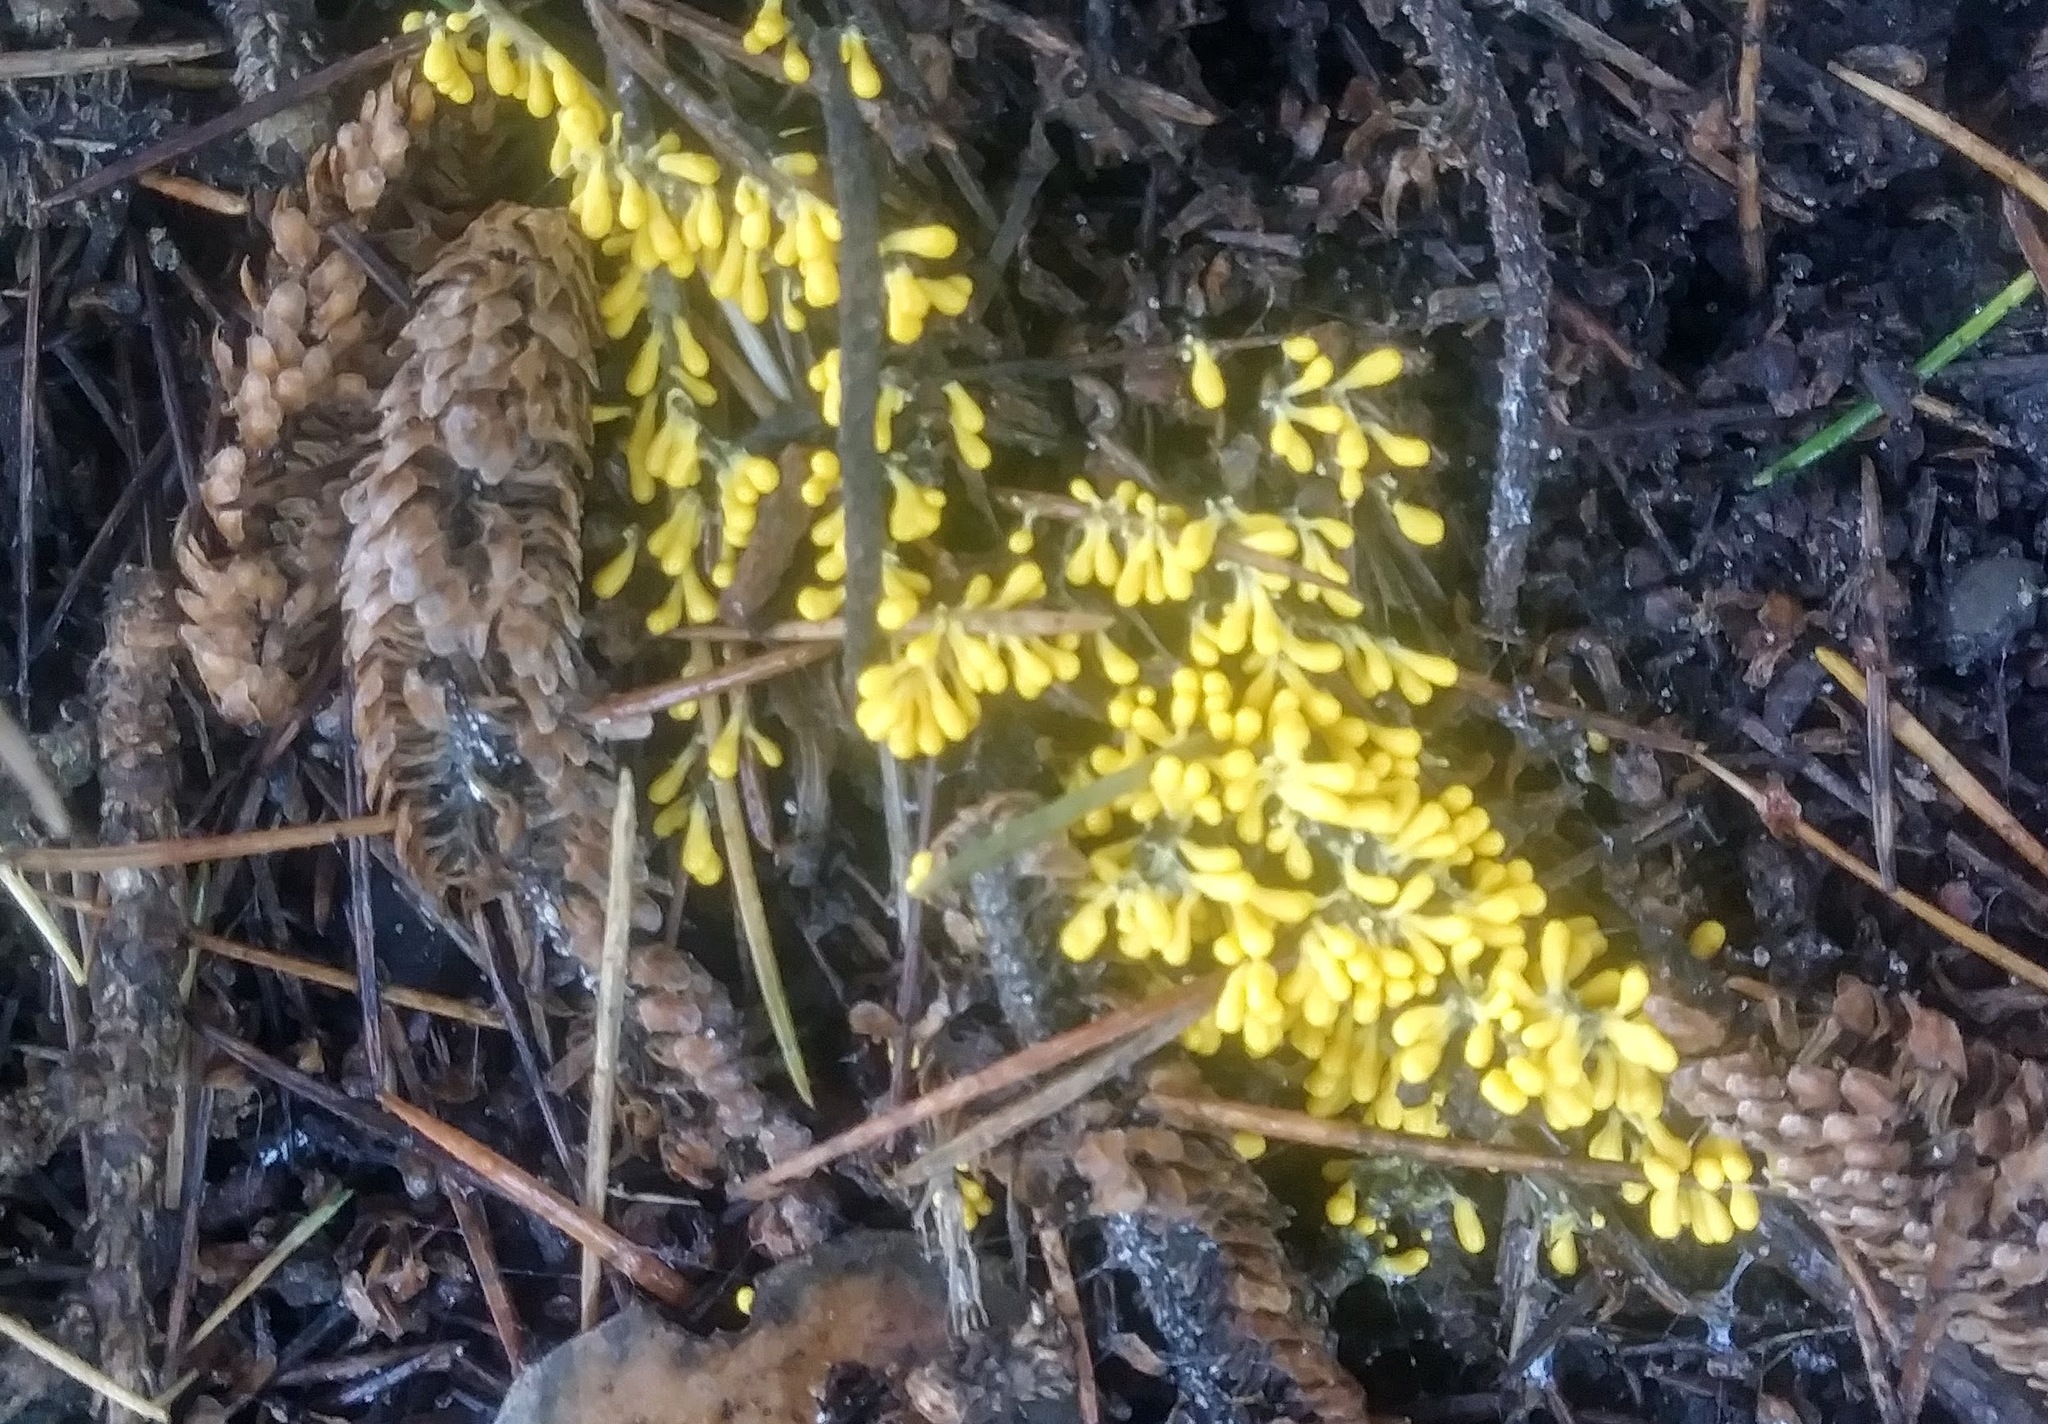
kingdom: Protozoa
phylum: Mycetozoa
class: Myxomycetes
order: Physarales
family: Physaraceae
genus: Leocarpus
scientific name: Leocarpus fragilis
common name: Insect-egg slime
